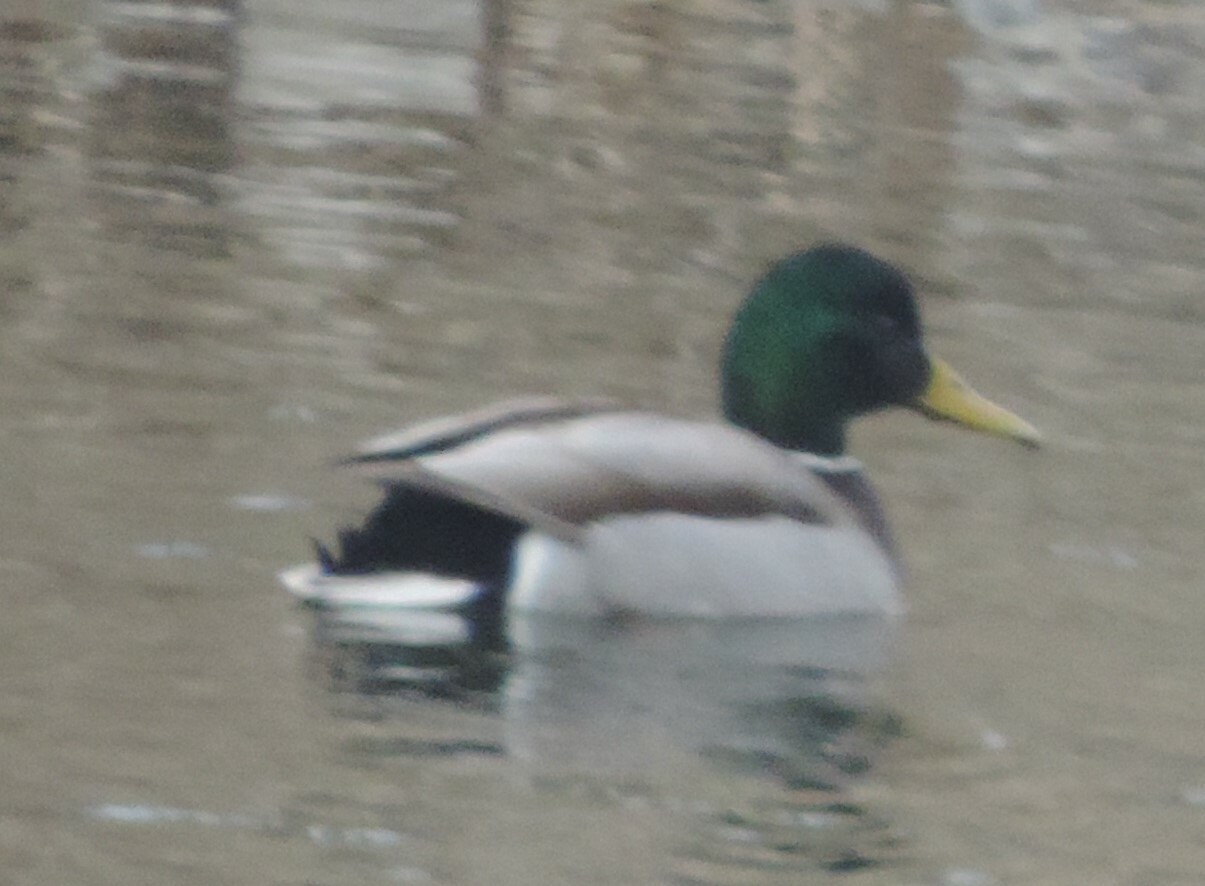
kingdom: Animalia
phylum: Chordata
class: Aves
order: Anseriformes
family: Anatidae
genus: Anas
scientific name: Anas platyrhynchos
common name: Mallard
